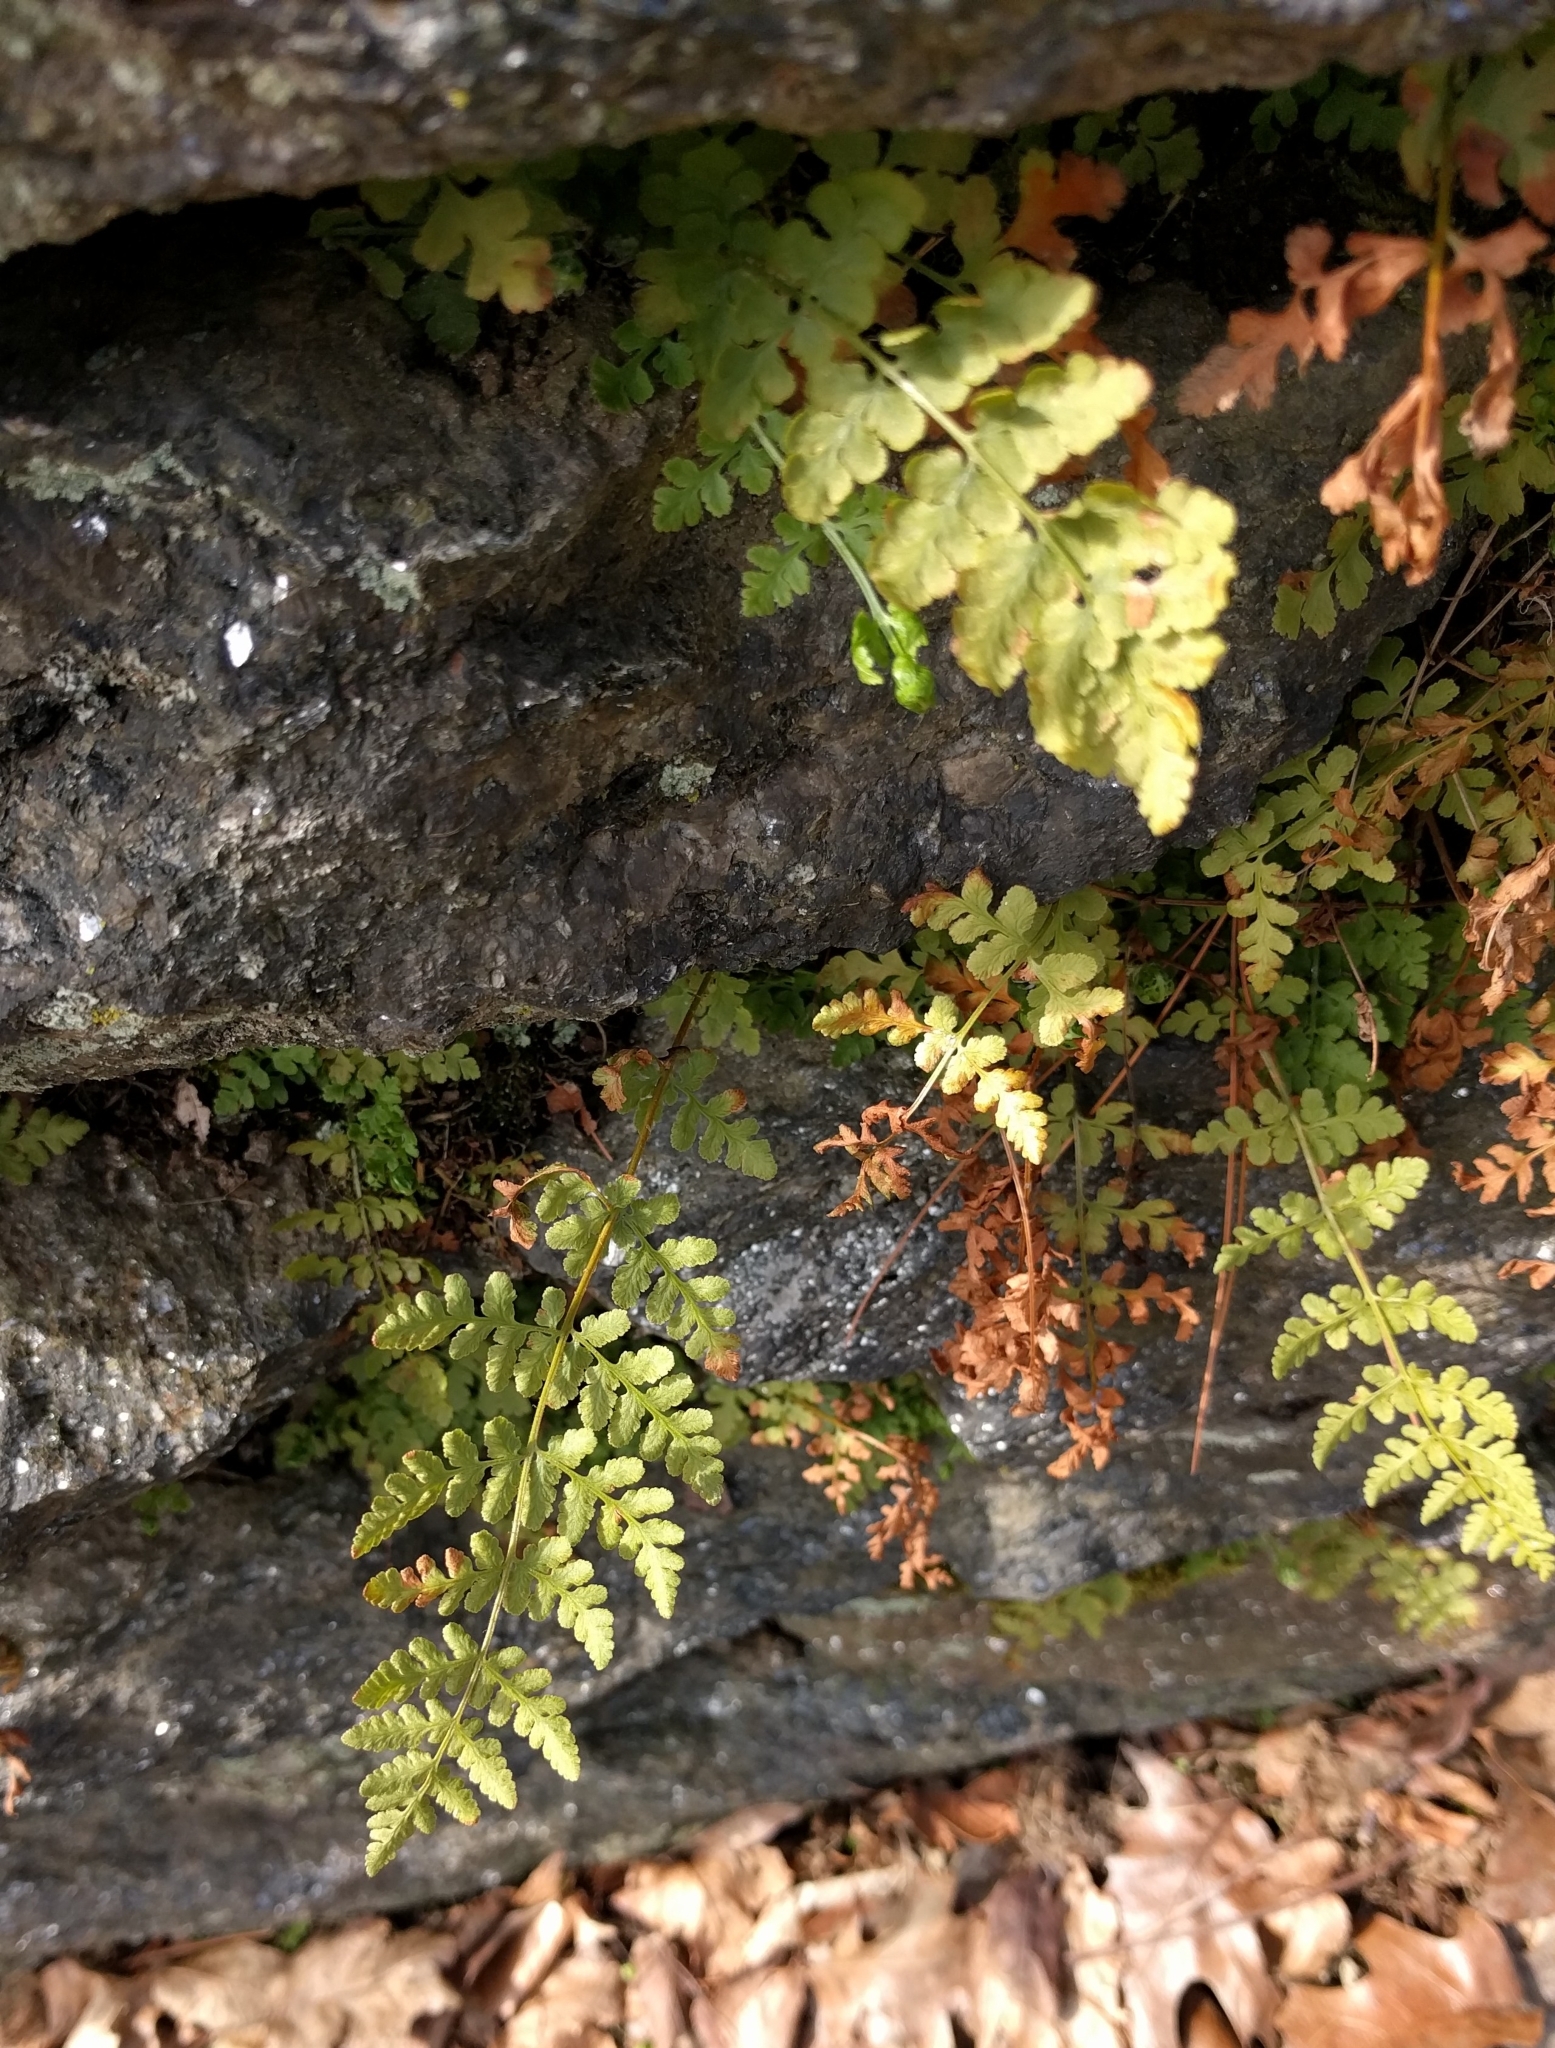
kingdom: Plantae
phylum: Tracheophyta
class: Polypodiopsida
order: Polypodiales
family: Woodsiaceae
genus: Physematium
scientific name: Physematium obtusum
